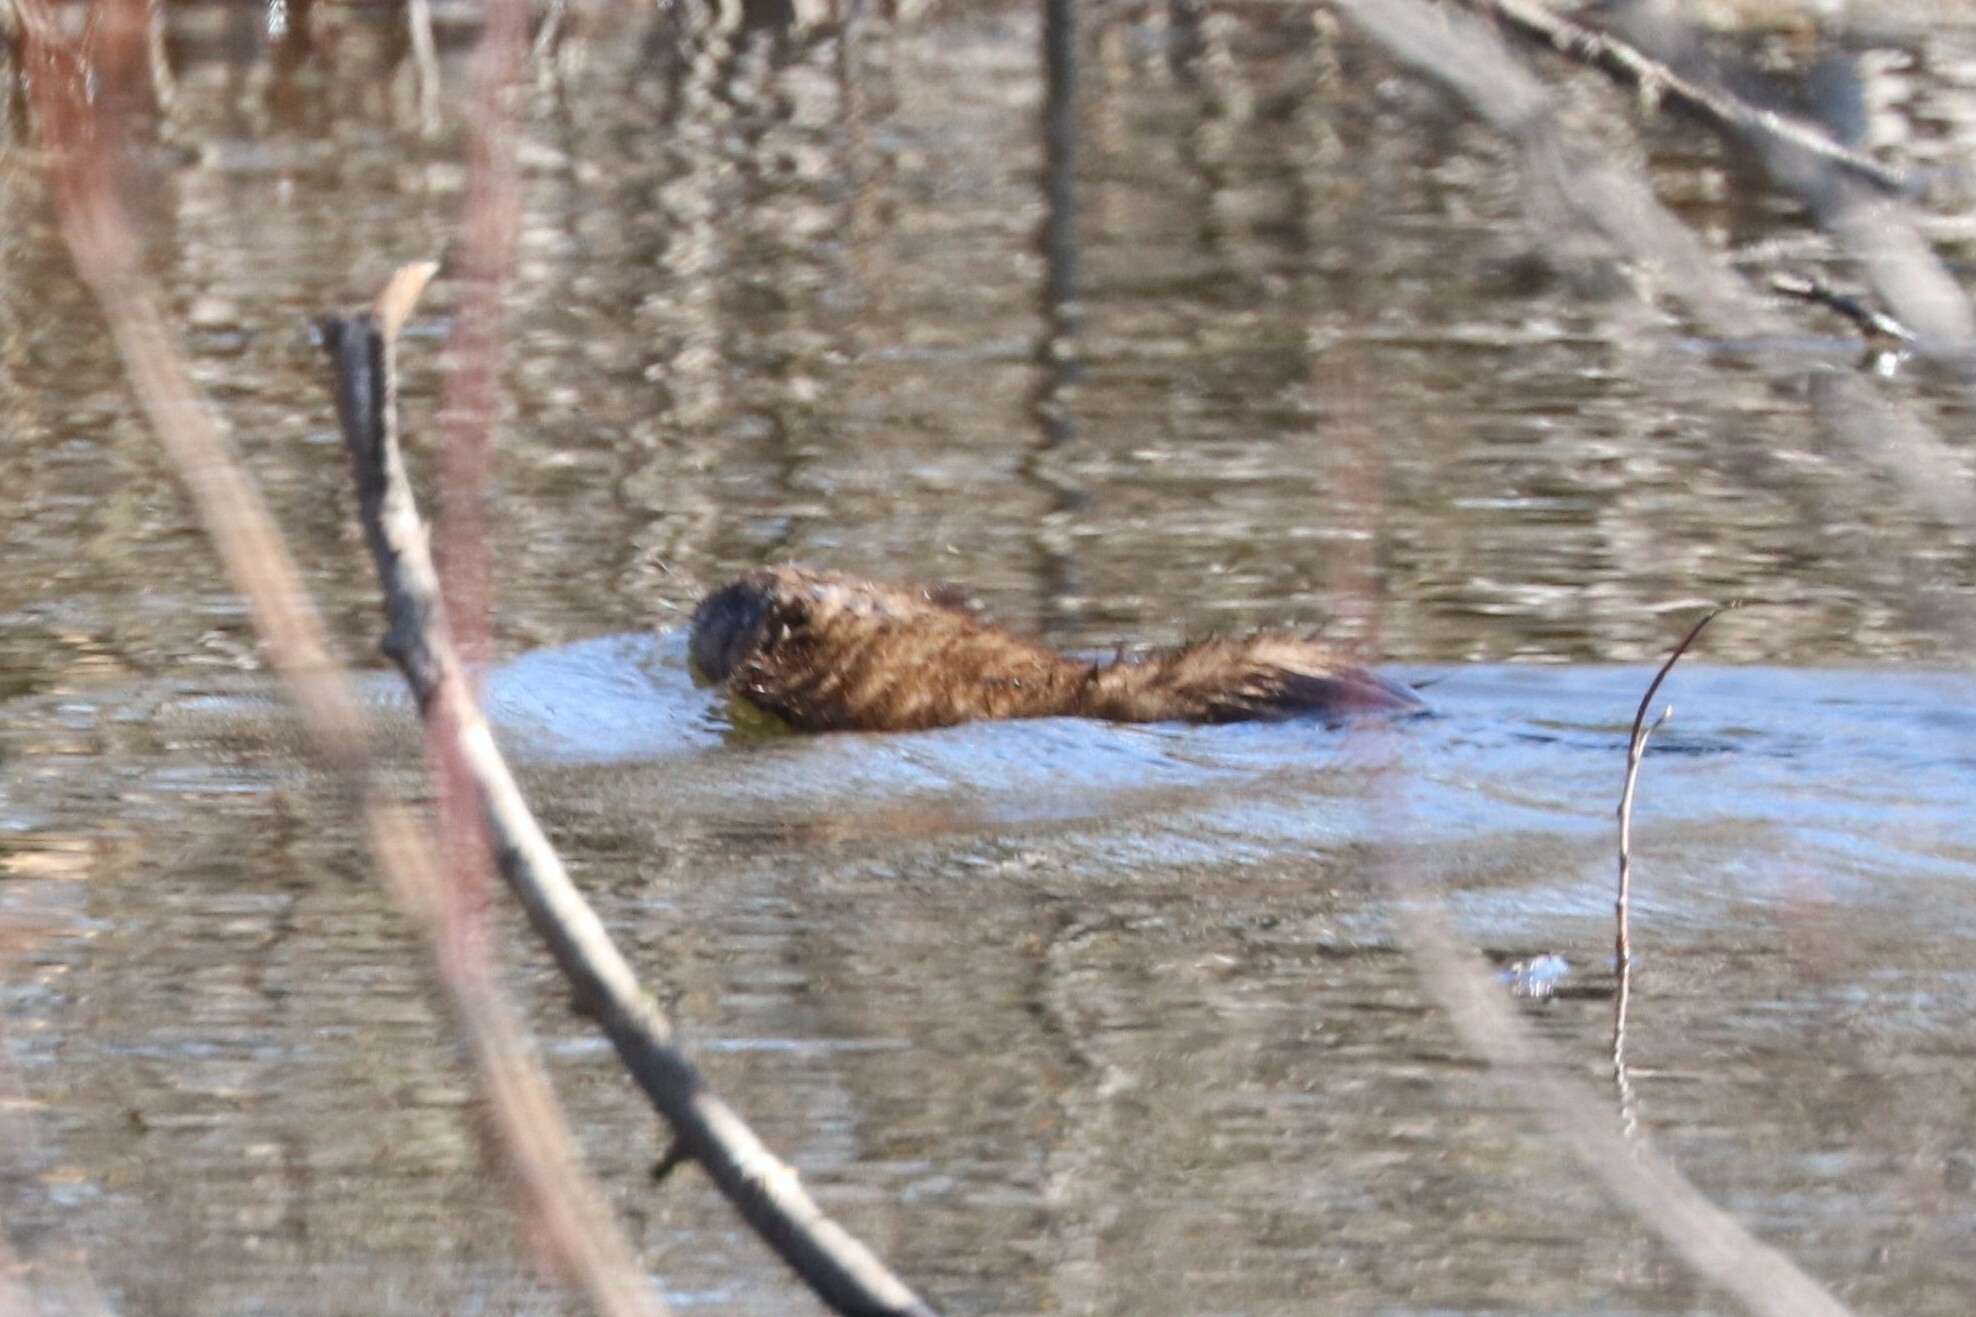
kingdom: Animalia
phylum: Chordata
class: Mammalia
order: Rodentia
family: Cricetidae
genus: Ondatra
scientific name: Ondatra zibethicus
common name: Muskrat
